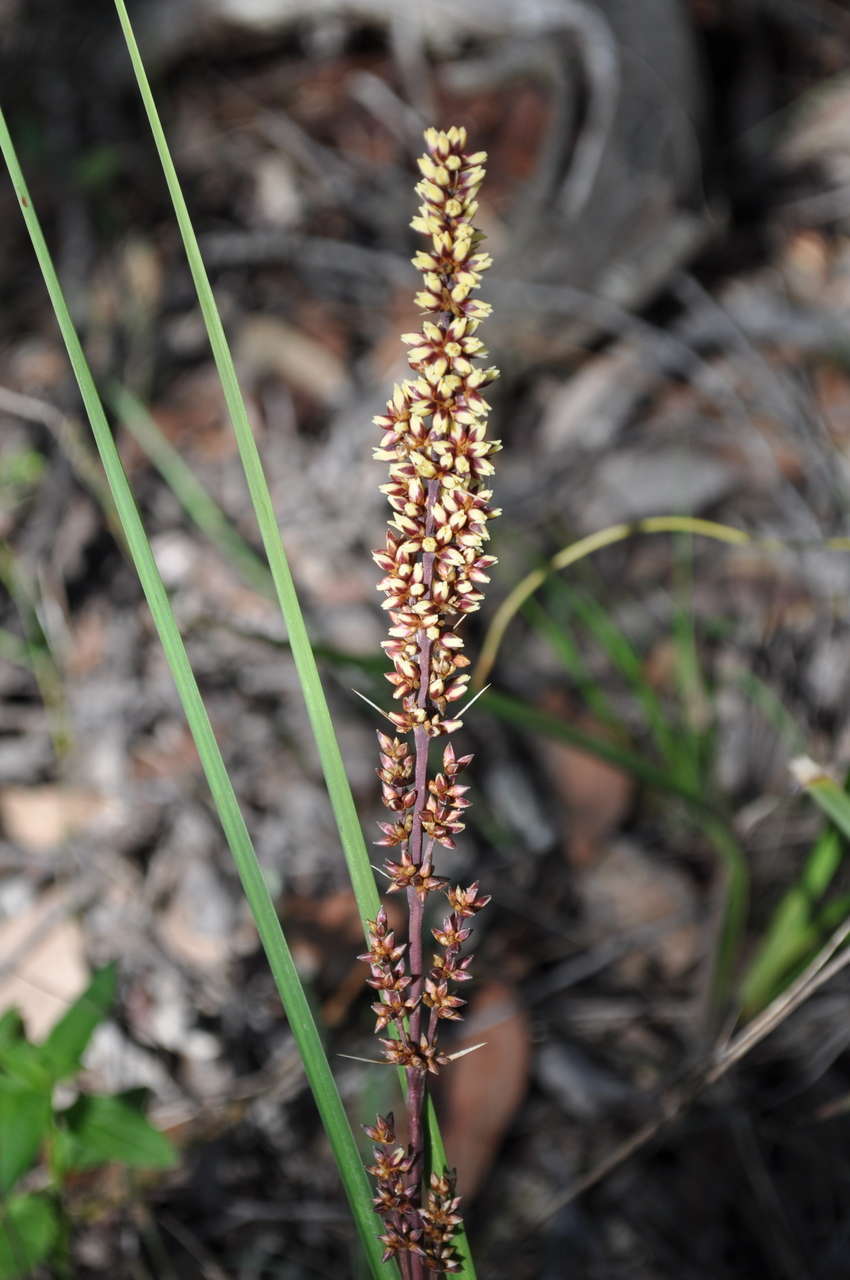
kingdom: Plantae
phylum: Tracheophyta
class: Liliopsida
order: Asparagales
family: Asparagaceae
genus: Lomandra
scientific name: Lomandra longifolia
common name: Longleaf mat-rush
